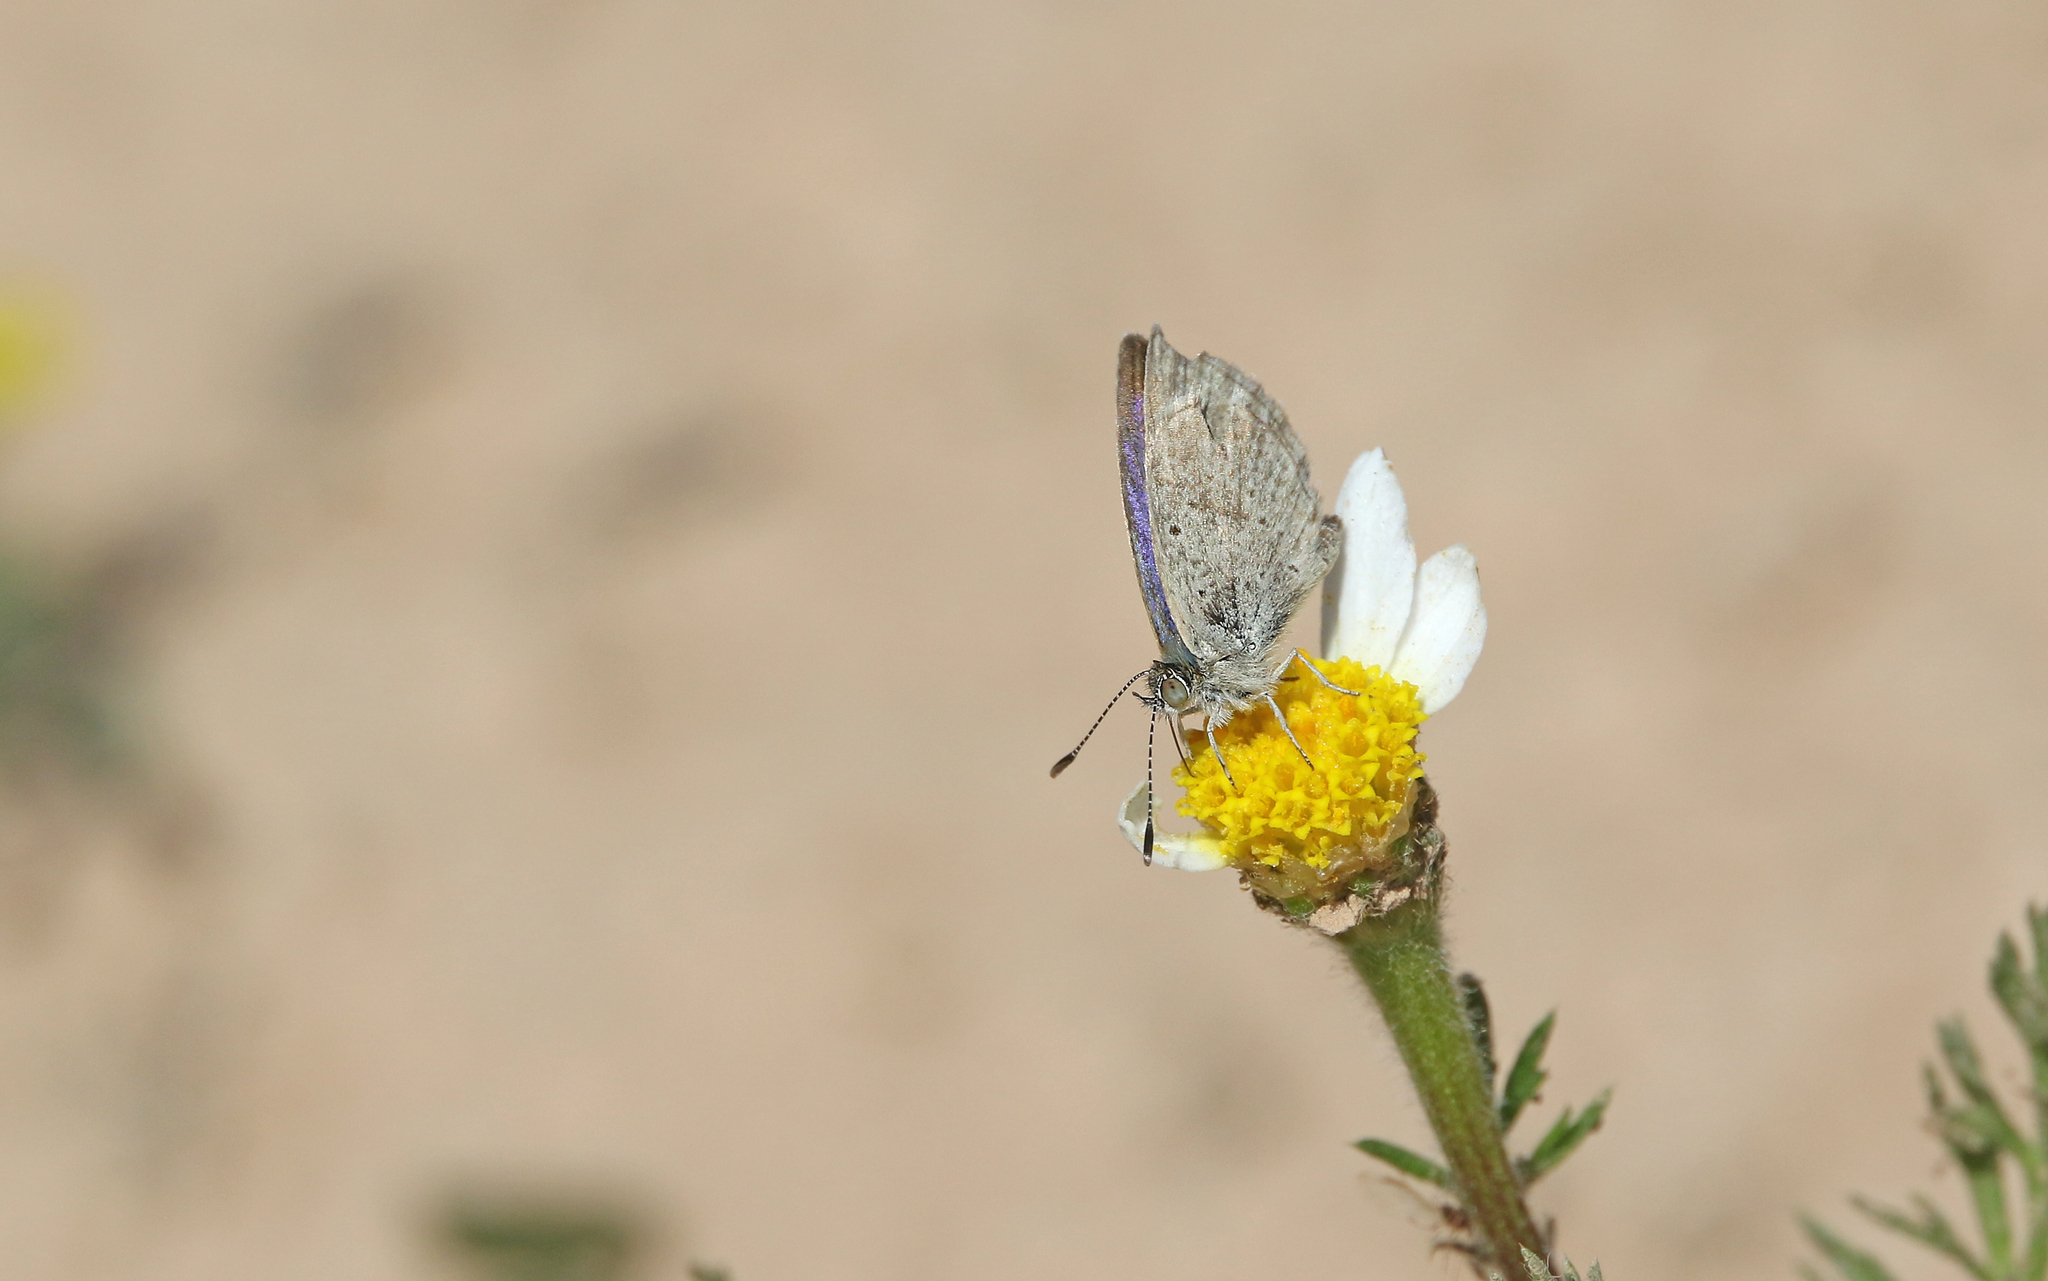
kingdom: Animalia
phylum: Arthropoda
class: Insecta
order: Lepidoptera
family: Lycaenidae
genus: Zizeeria
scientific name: Zizeeria knysna
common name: African grass blue
